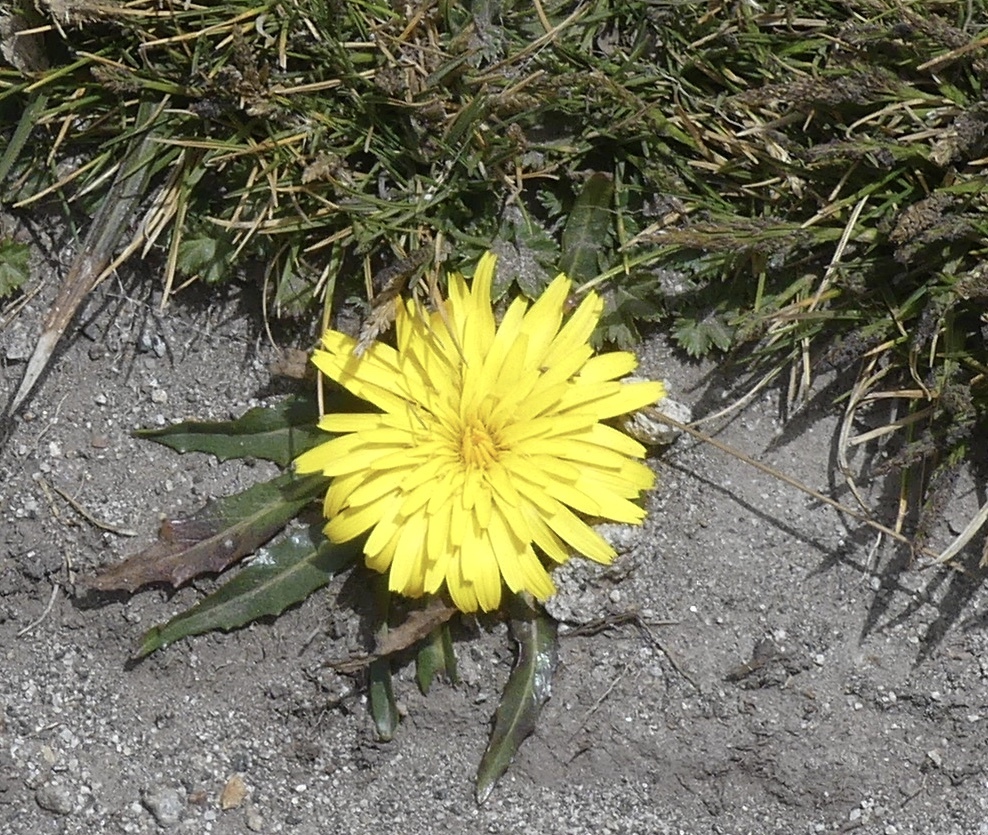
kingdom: Plantae
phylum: Tracheophyta
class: Magnoliopsida
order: Asterales
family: Asteraceae
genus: Hypochaeris
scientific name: Hypochaeris sessiliflora
